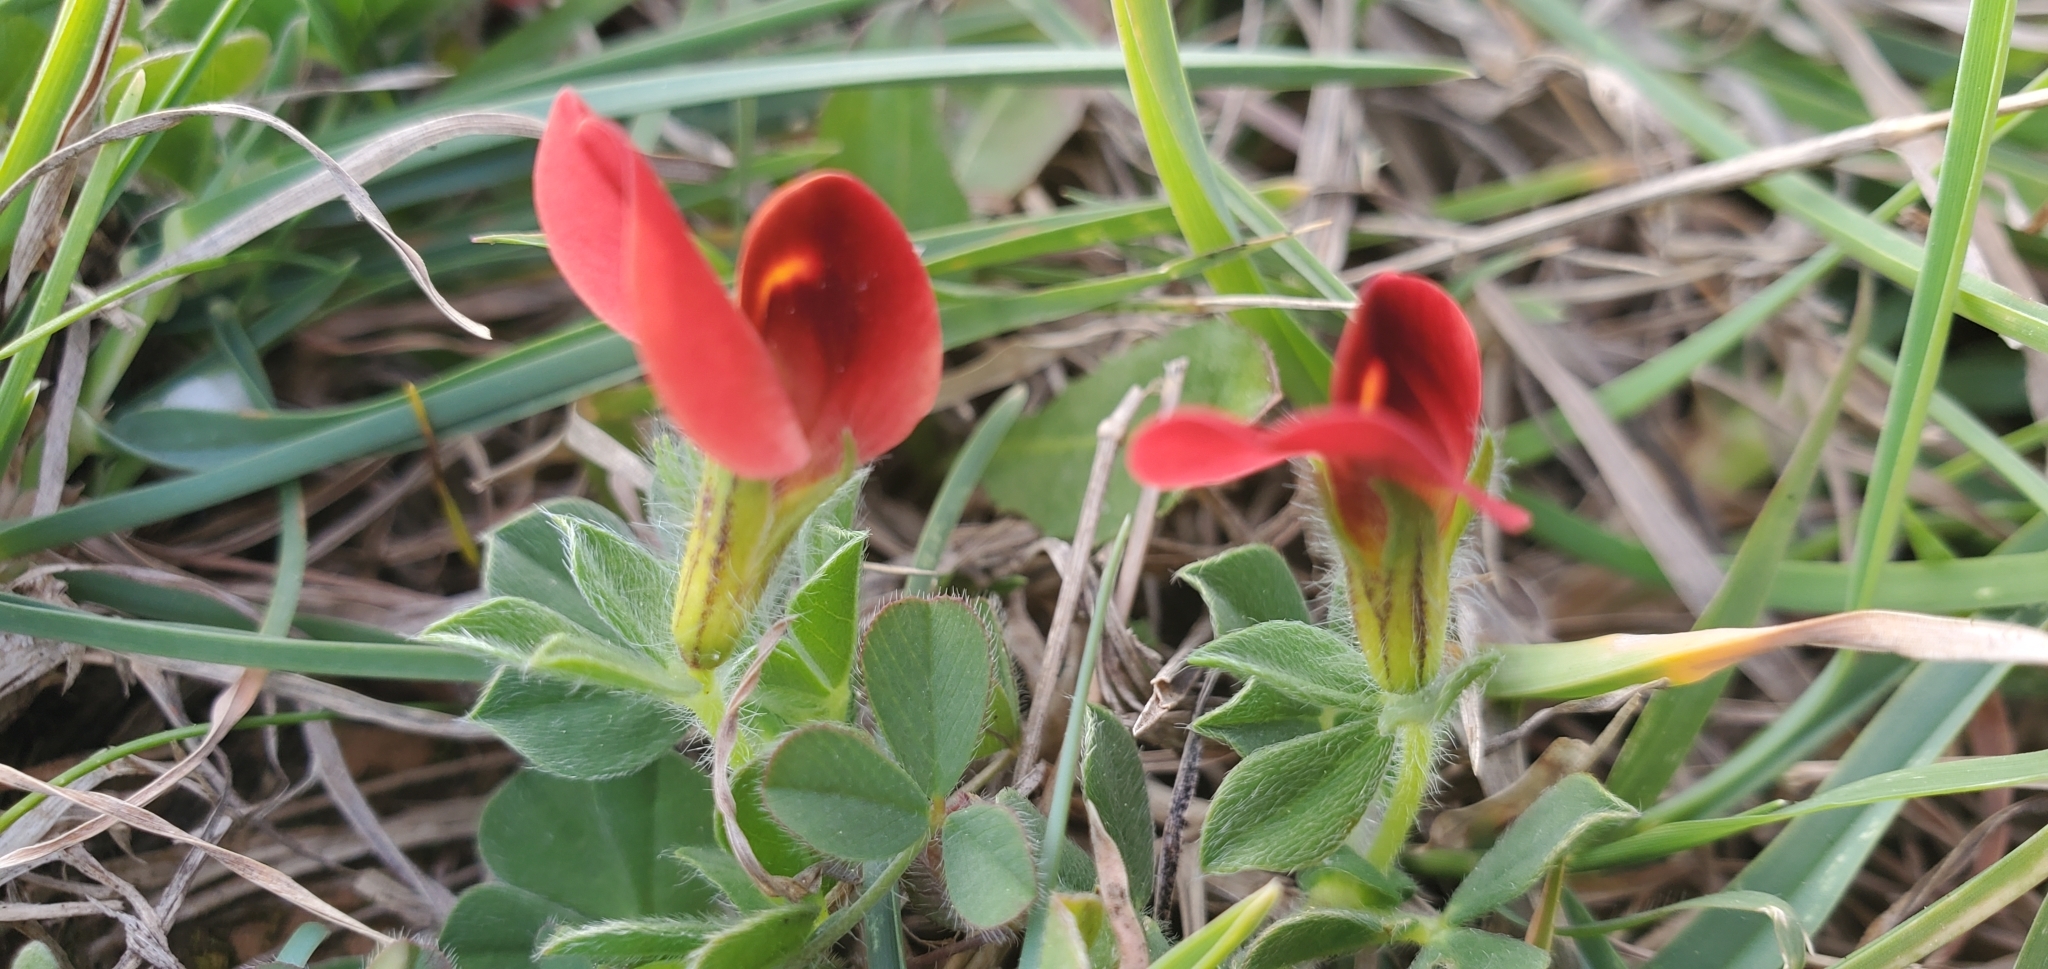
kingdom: Plantae
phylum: Tracheophyta
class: Magnoliopsida
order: Fabales
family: Fabaceae
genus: Lotus
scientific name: Lotus tetragonolobus
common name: Asparagus-pea
